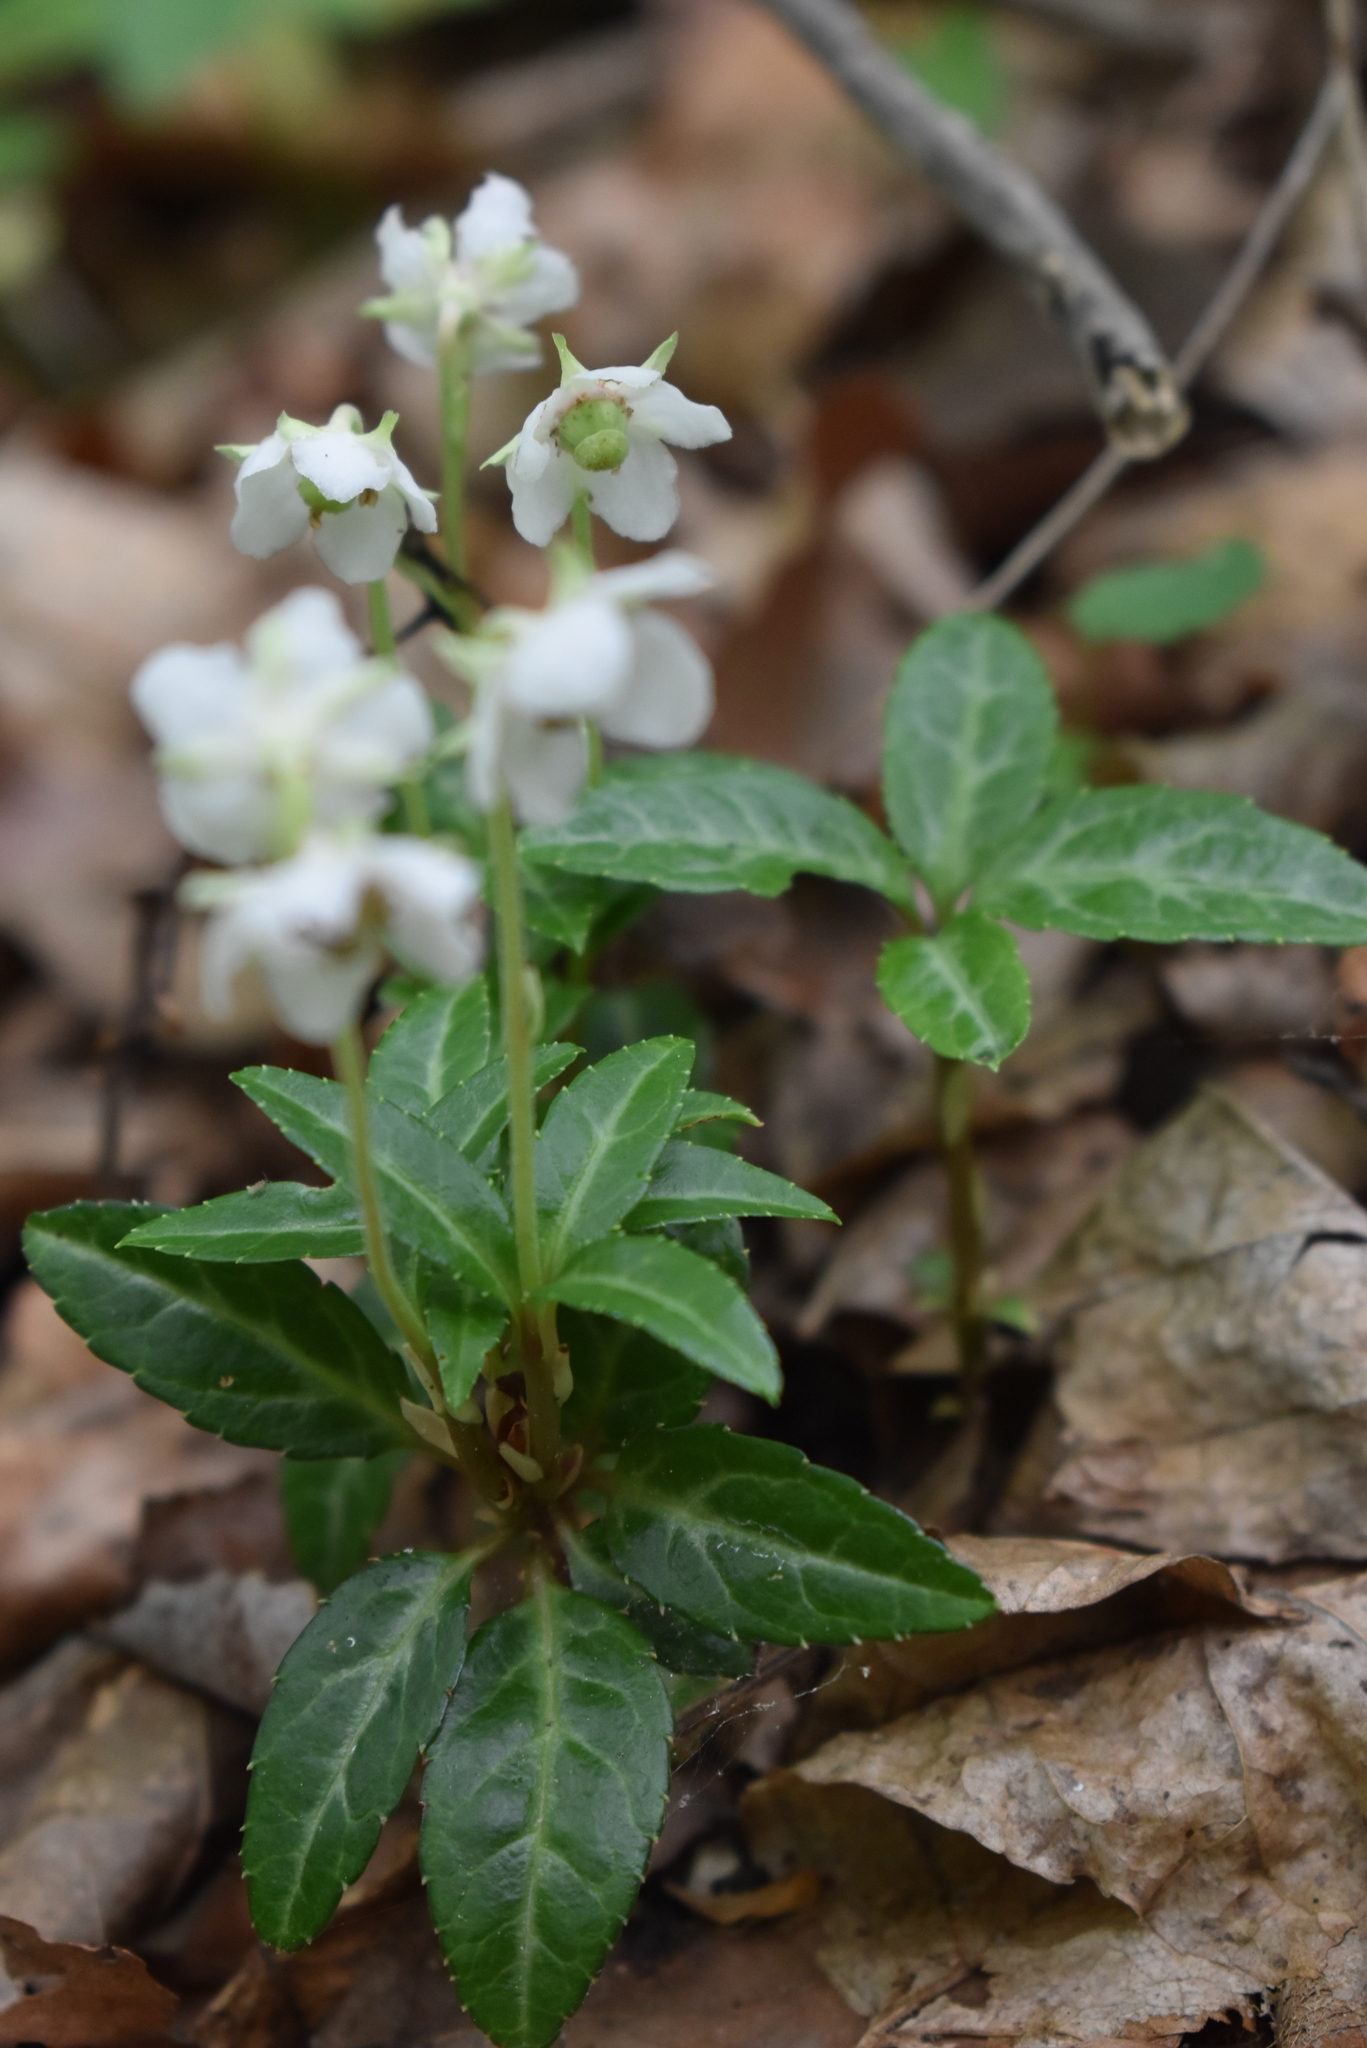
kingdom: Plantae
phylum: Tracheophyta
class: Magnoliopsida
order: Ericales
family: Ericaceae
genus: Chimaphila
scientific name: Chimaphila japonica
